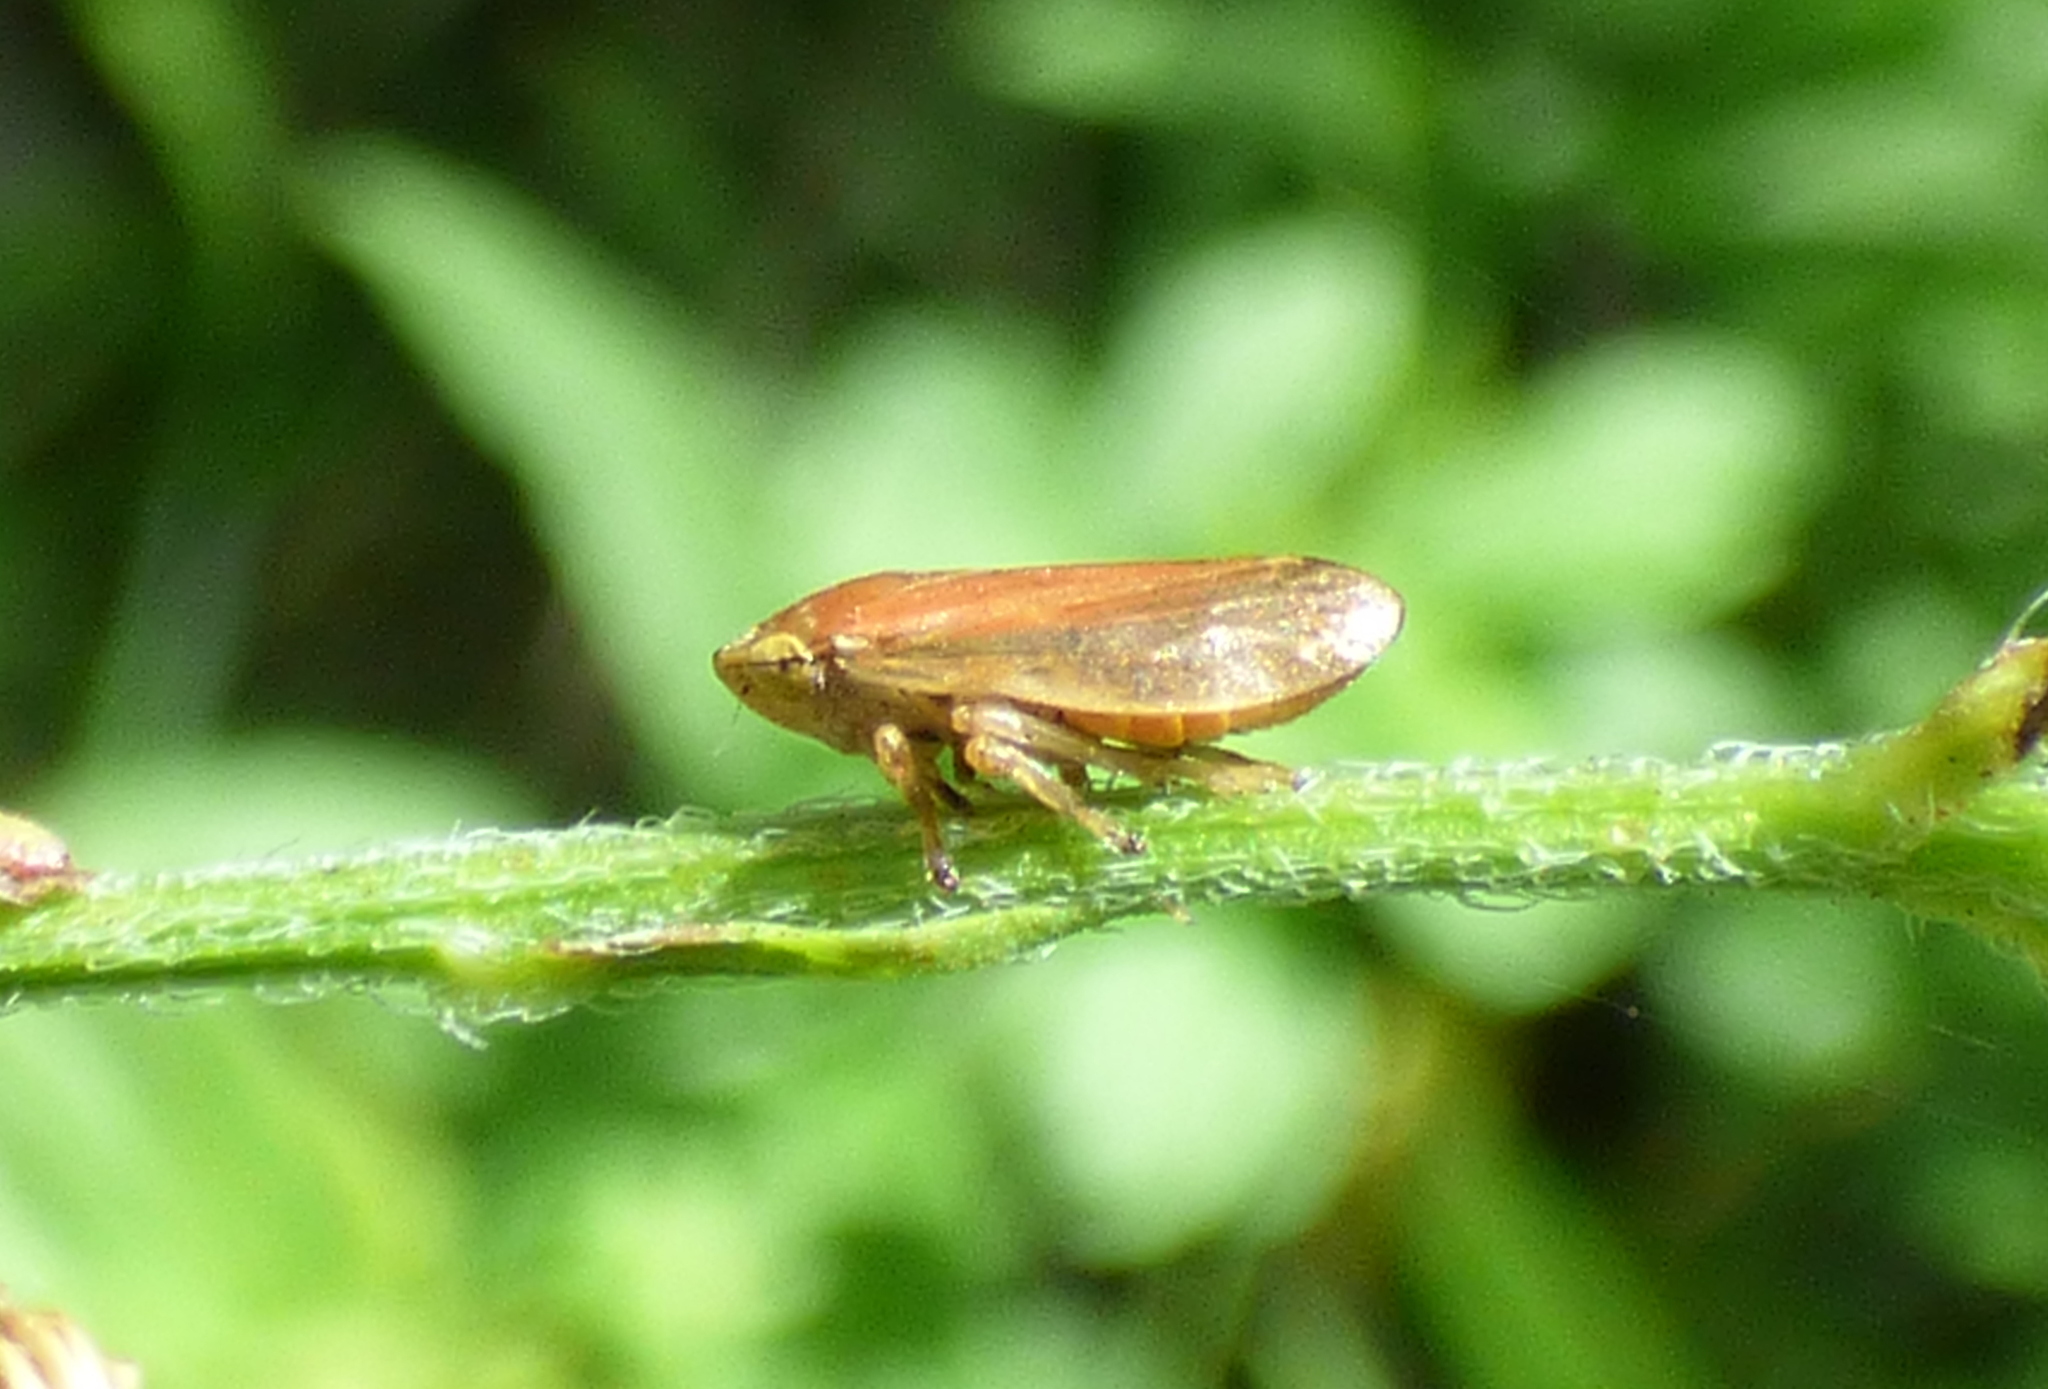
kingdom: Animalia
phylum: Arthropoda
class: Insecta
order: Hemiptera
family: Aphrophoridae
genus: Philaenus
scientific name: Philaenus spumarius
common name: Meadow spittlebug
